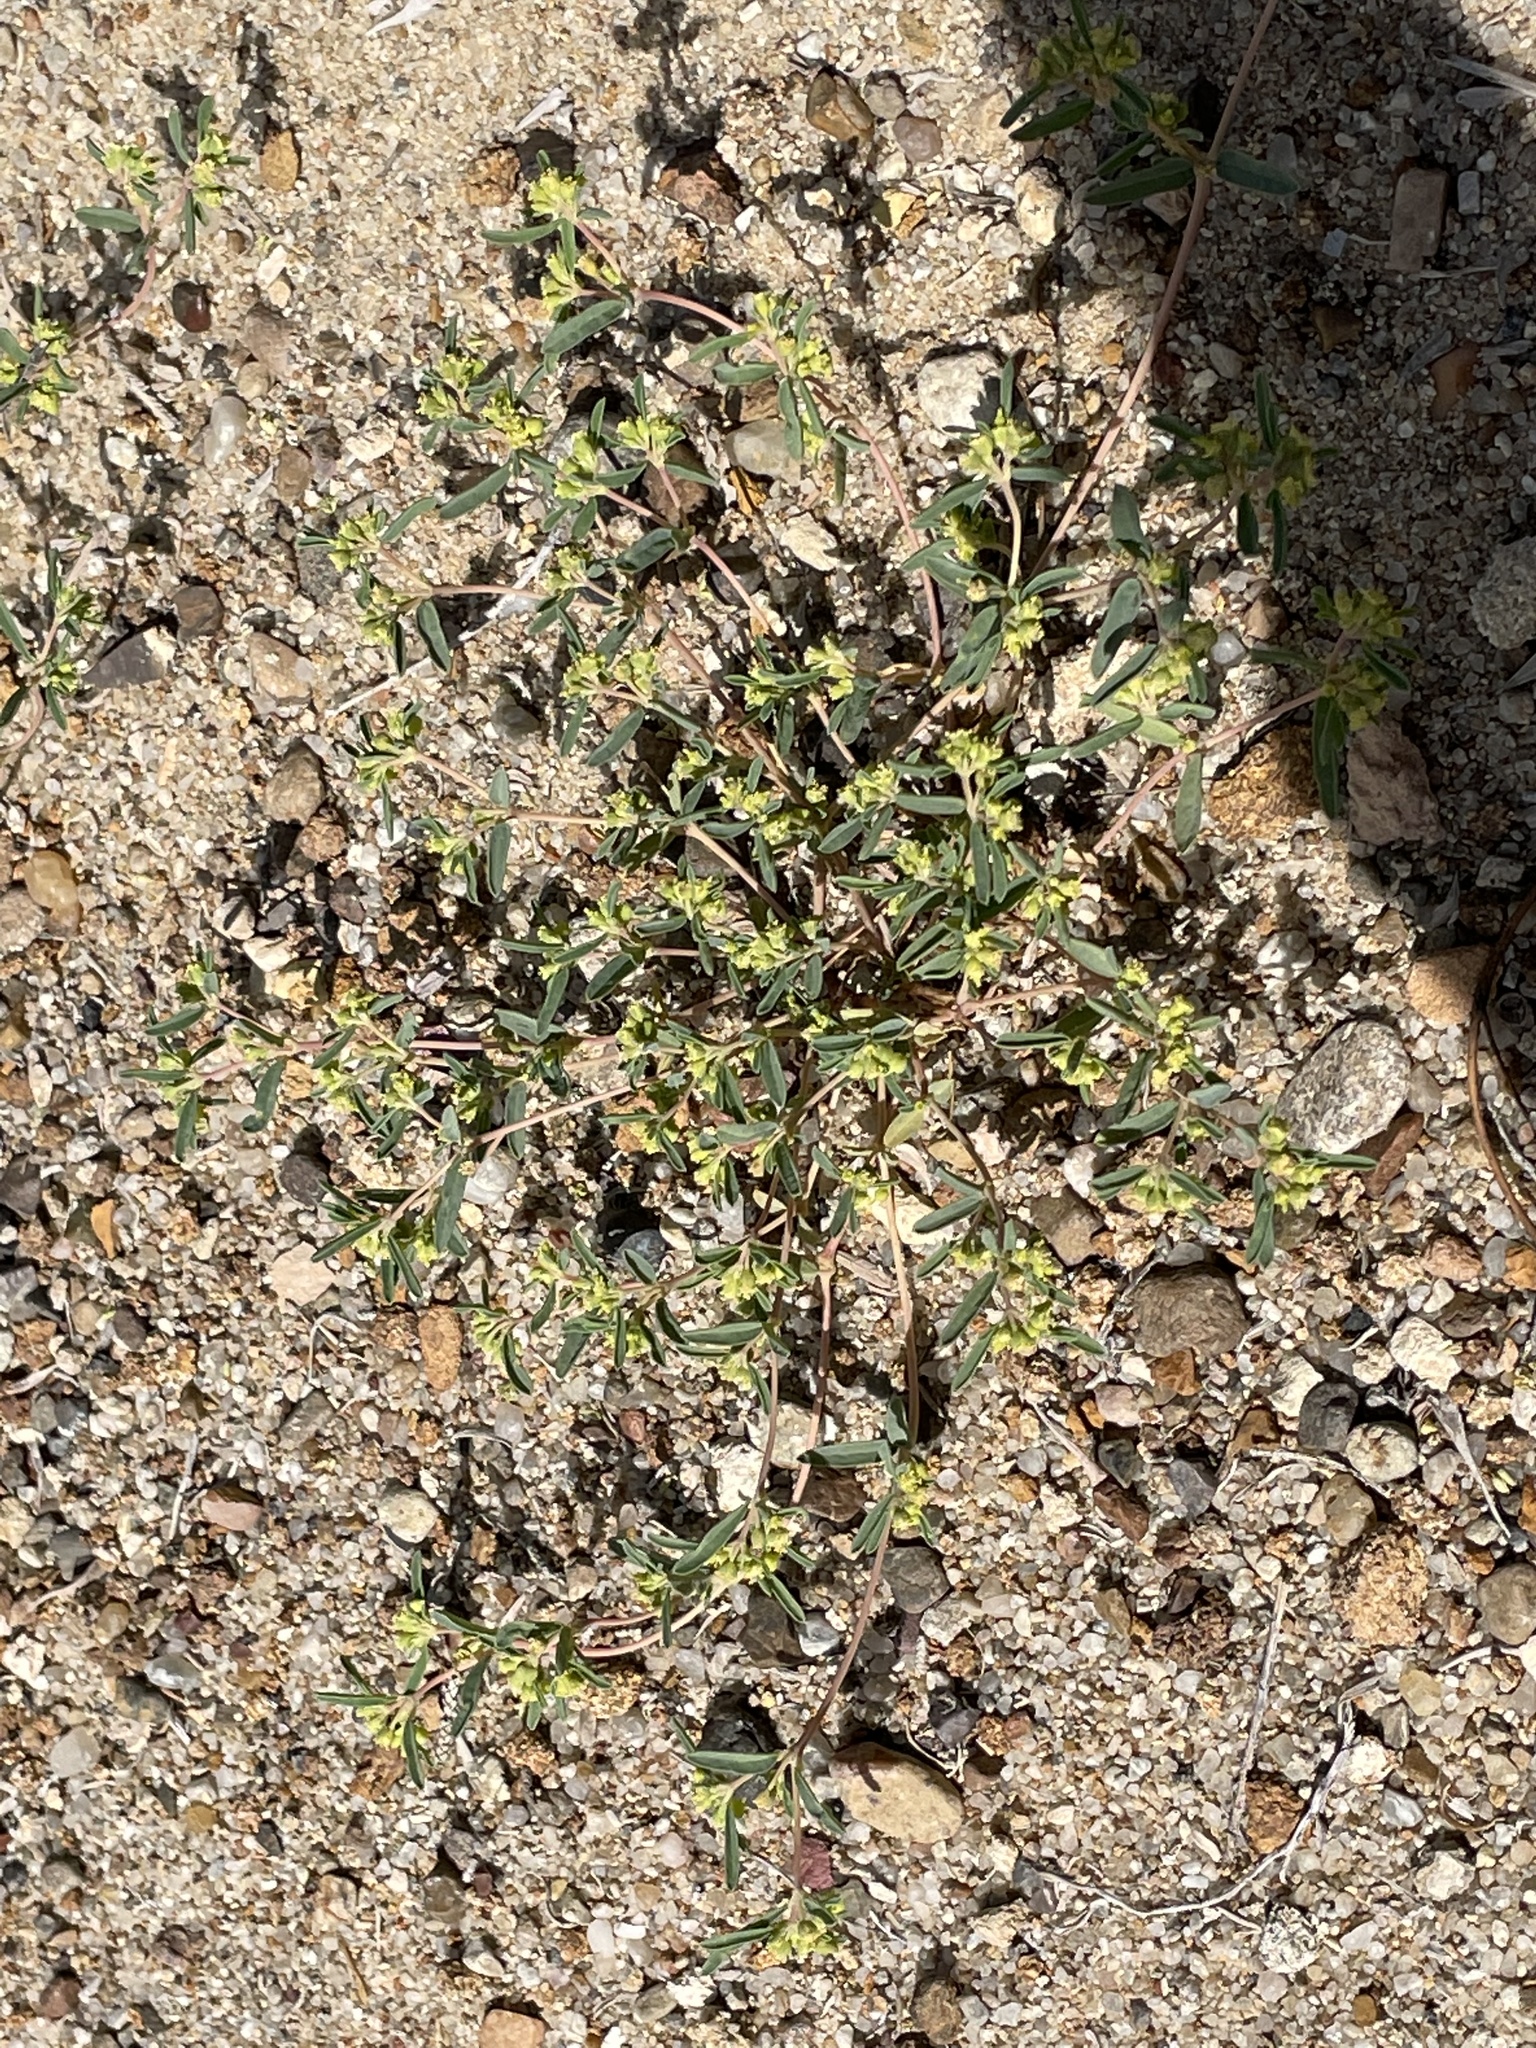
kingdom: Plantae
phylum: Tracheophyta
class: Magnoliopsida
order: Malpighiales
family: Euphorbiaceae
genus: Euphorbia
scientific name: Euphorbia parryi
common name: Dune spurge
